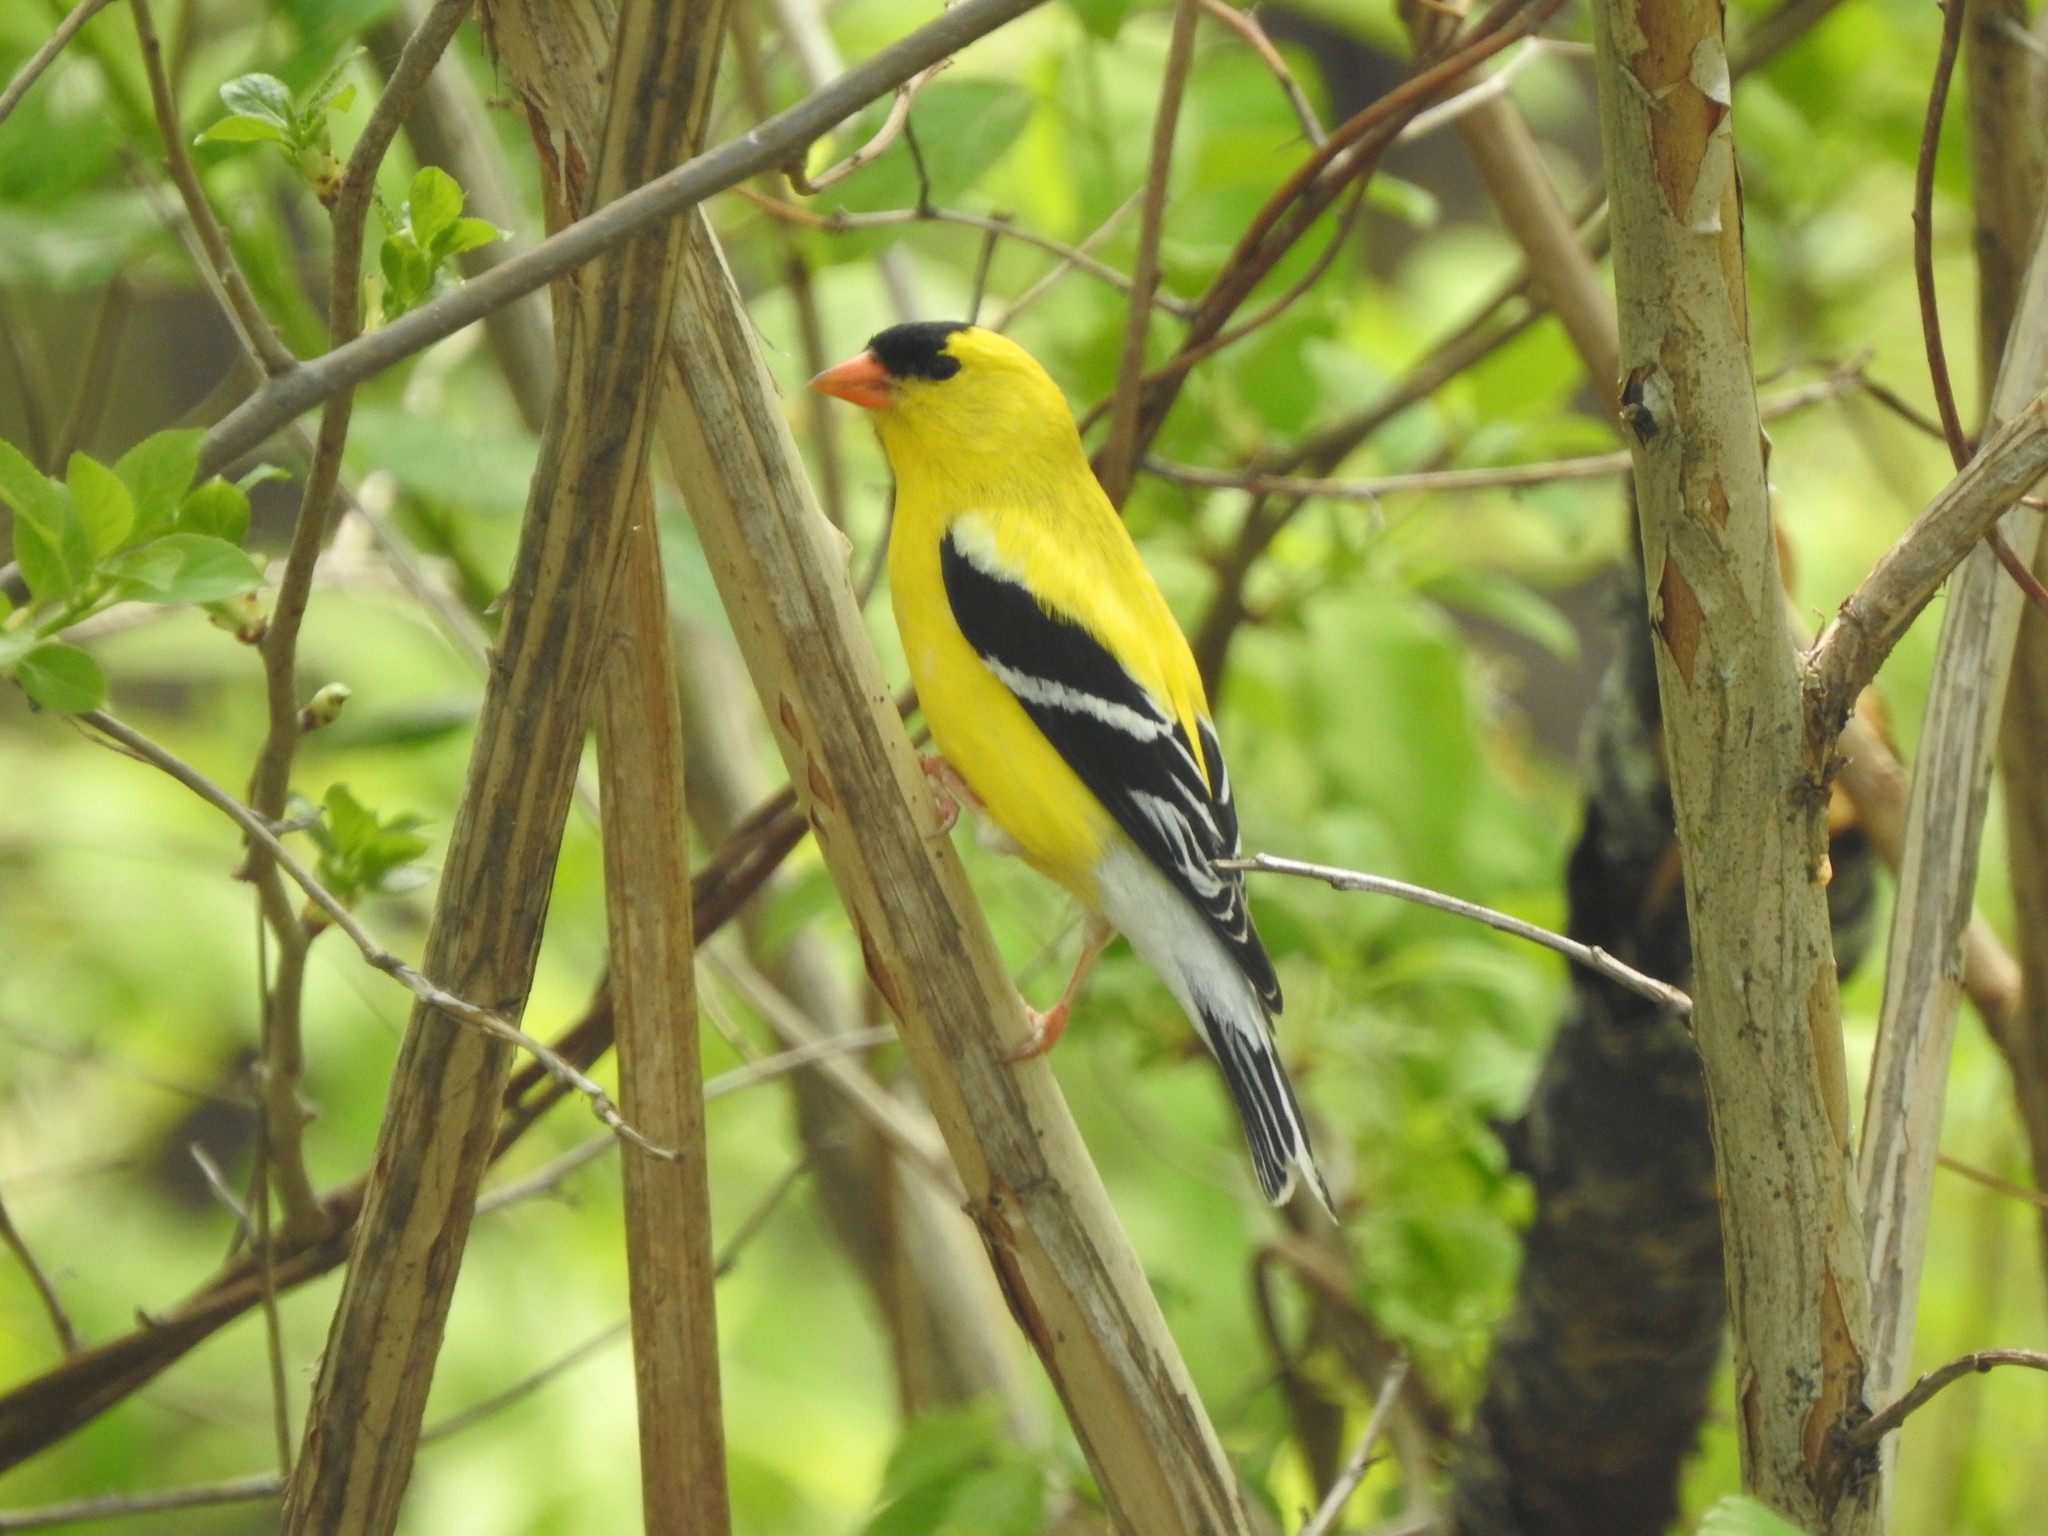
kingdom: Animalia
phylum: Chordata
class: Aves
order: Passeriformes
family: Fringillidae
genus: Spinus
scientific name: Spinus tristis
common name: American goldfinch
